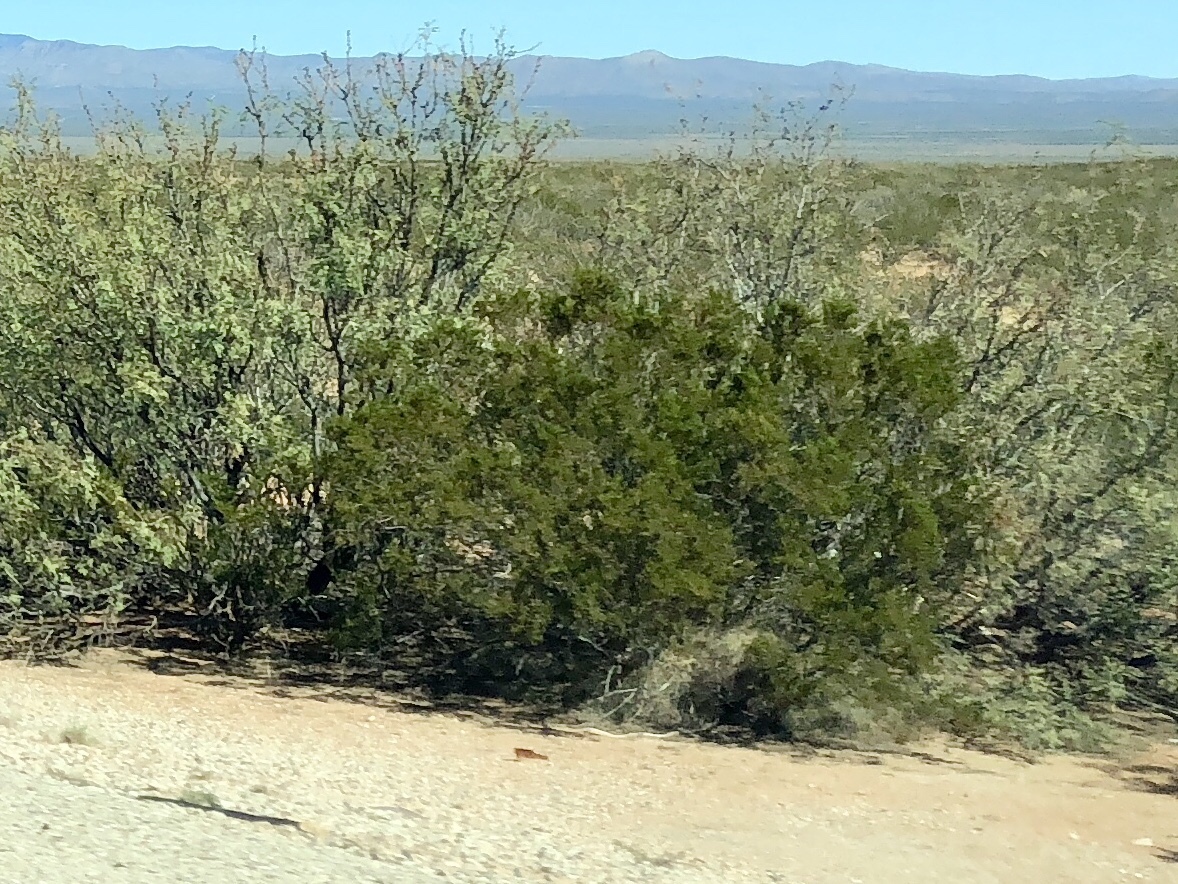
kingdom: Plantae
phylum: Tracheophyta
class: Magnoliopsida
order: Zygophyllales
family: Zygophyllaceae
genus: Larrea
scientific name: Larrea tridentata
